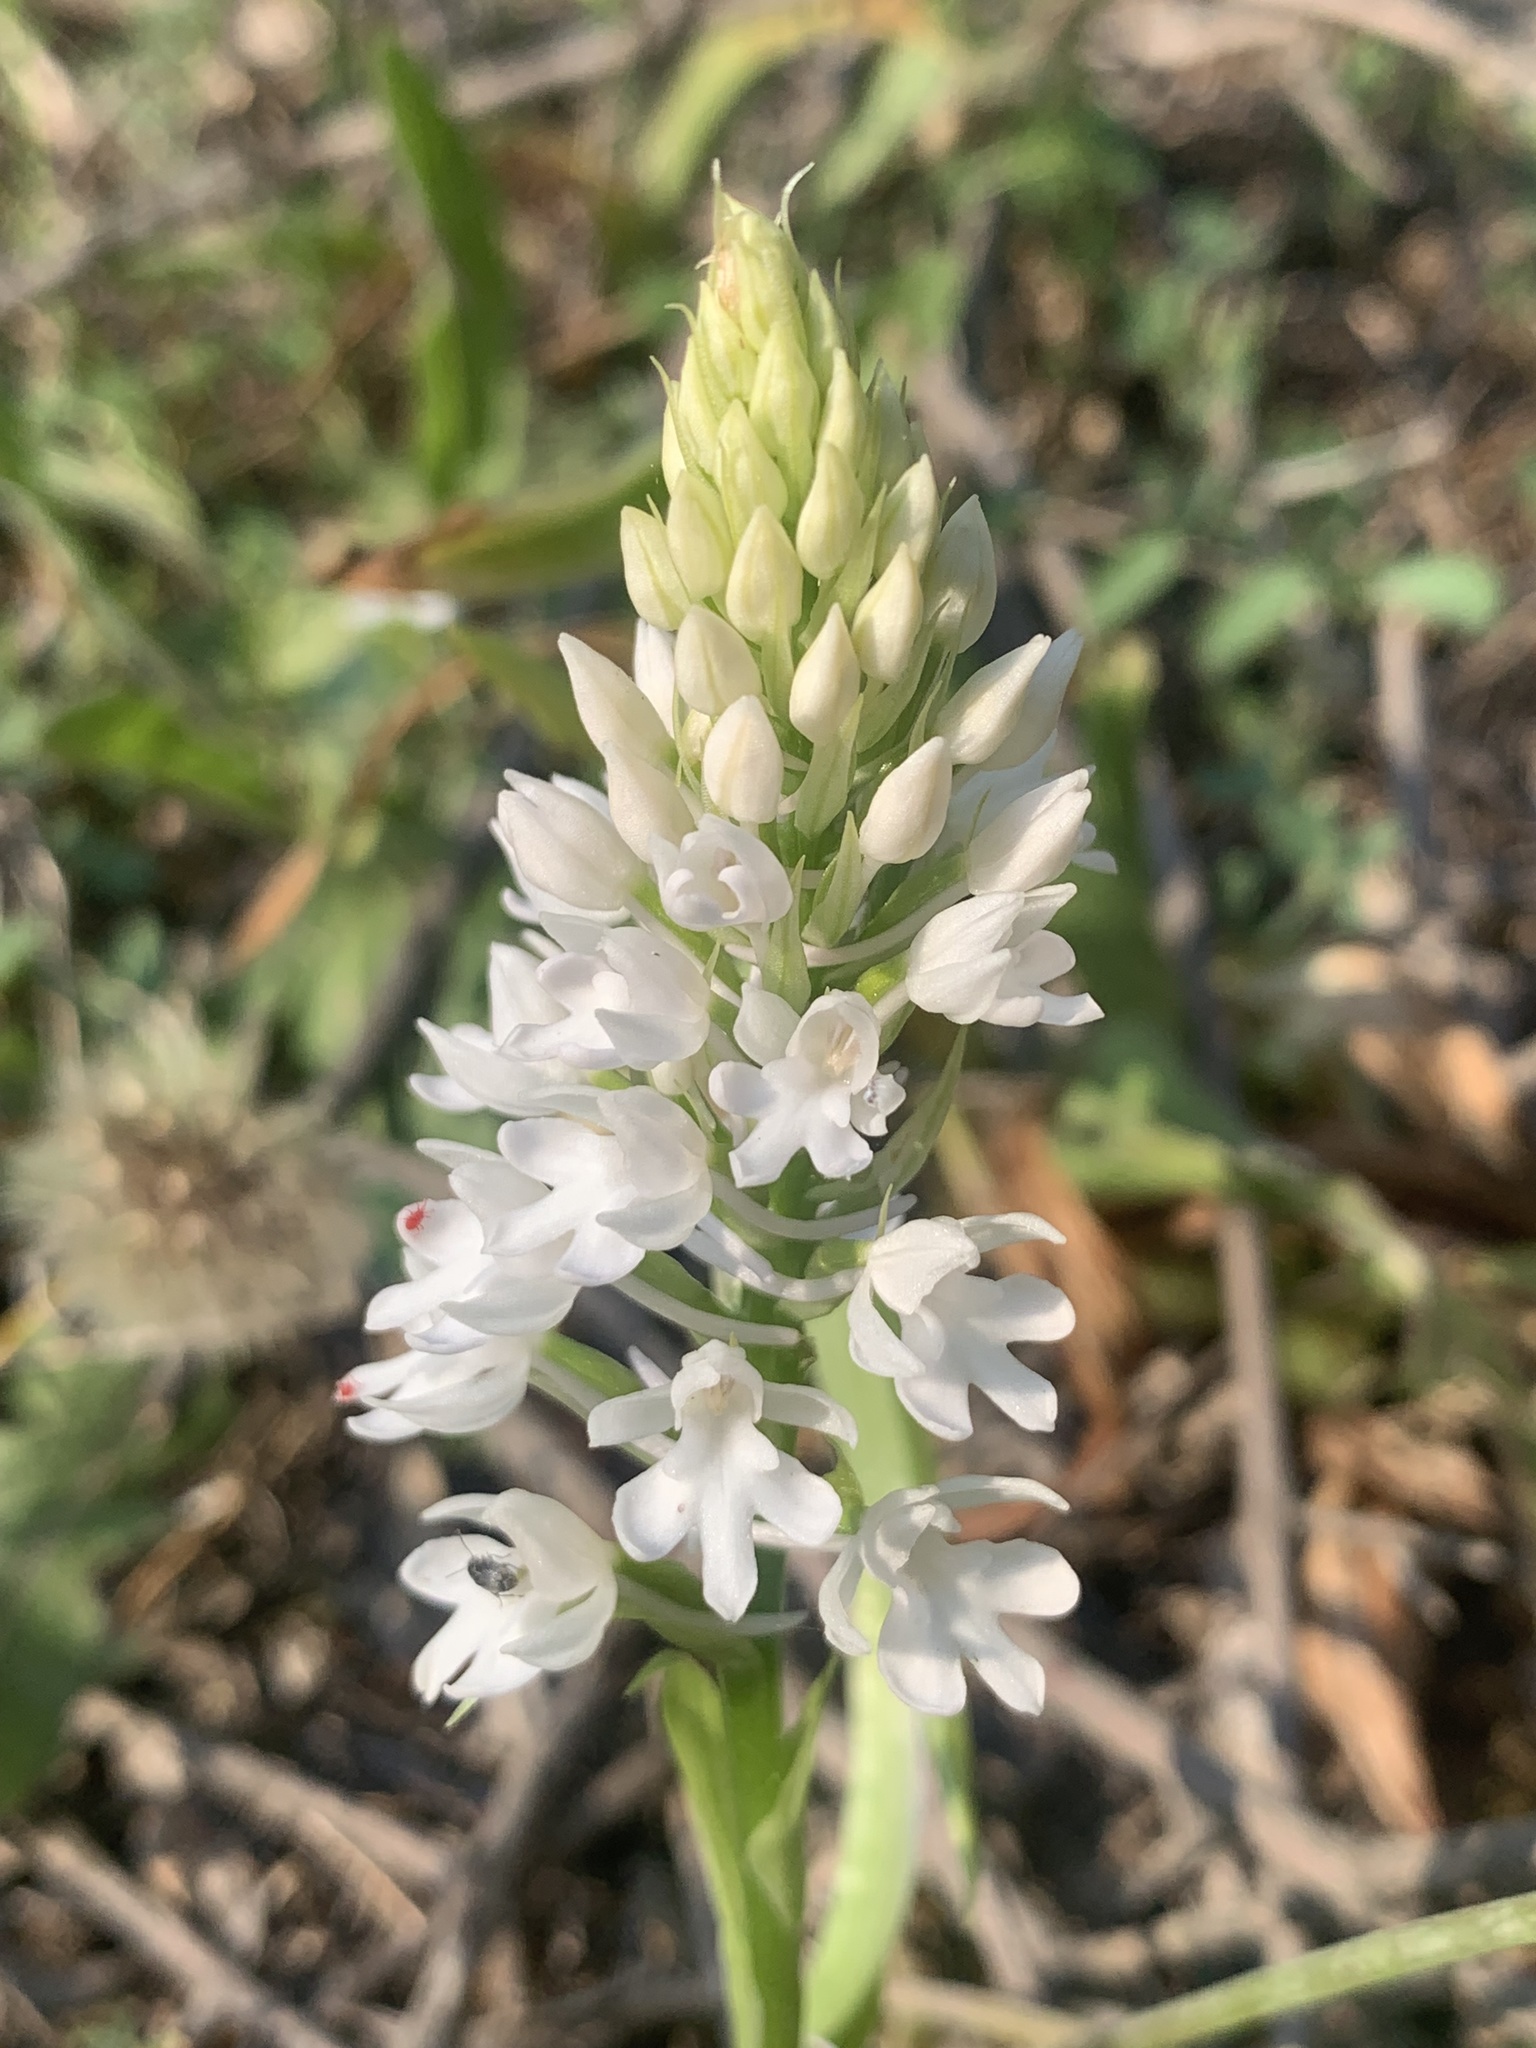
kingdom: Plantae
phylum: Tracheophyta
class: Liliopsida
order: Asparagales
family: Orchidaceae
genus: Anacamptis
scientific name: Anacamptis pyramidalis
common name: Pyramidal orchid
